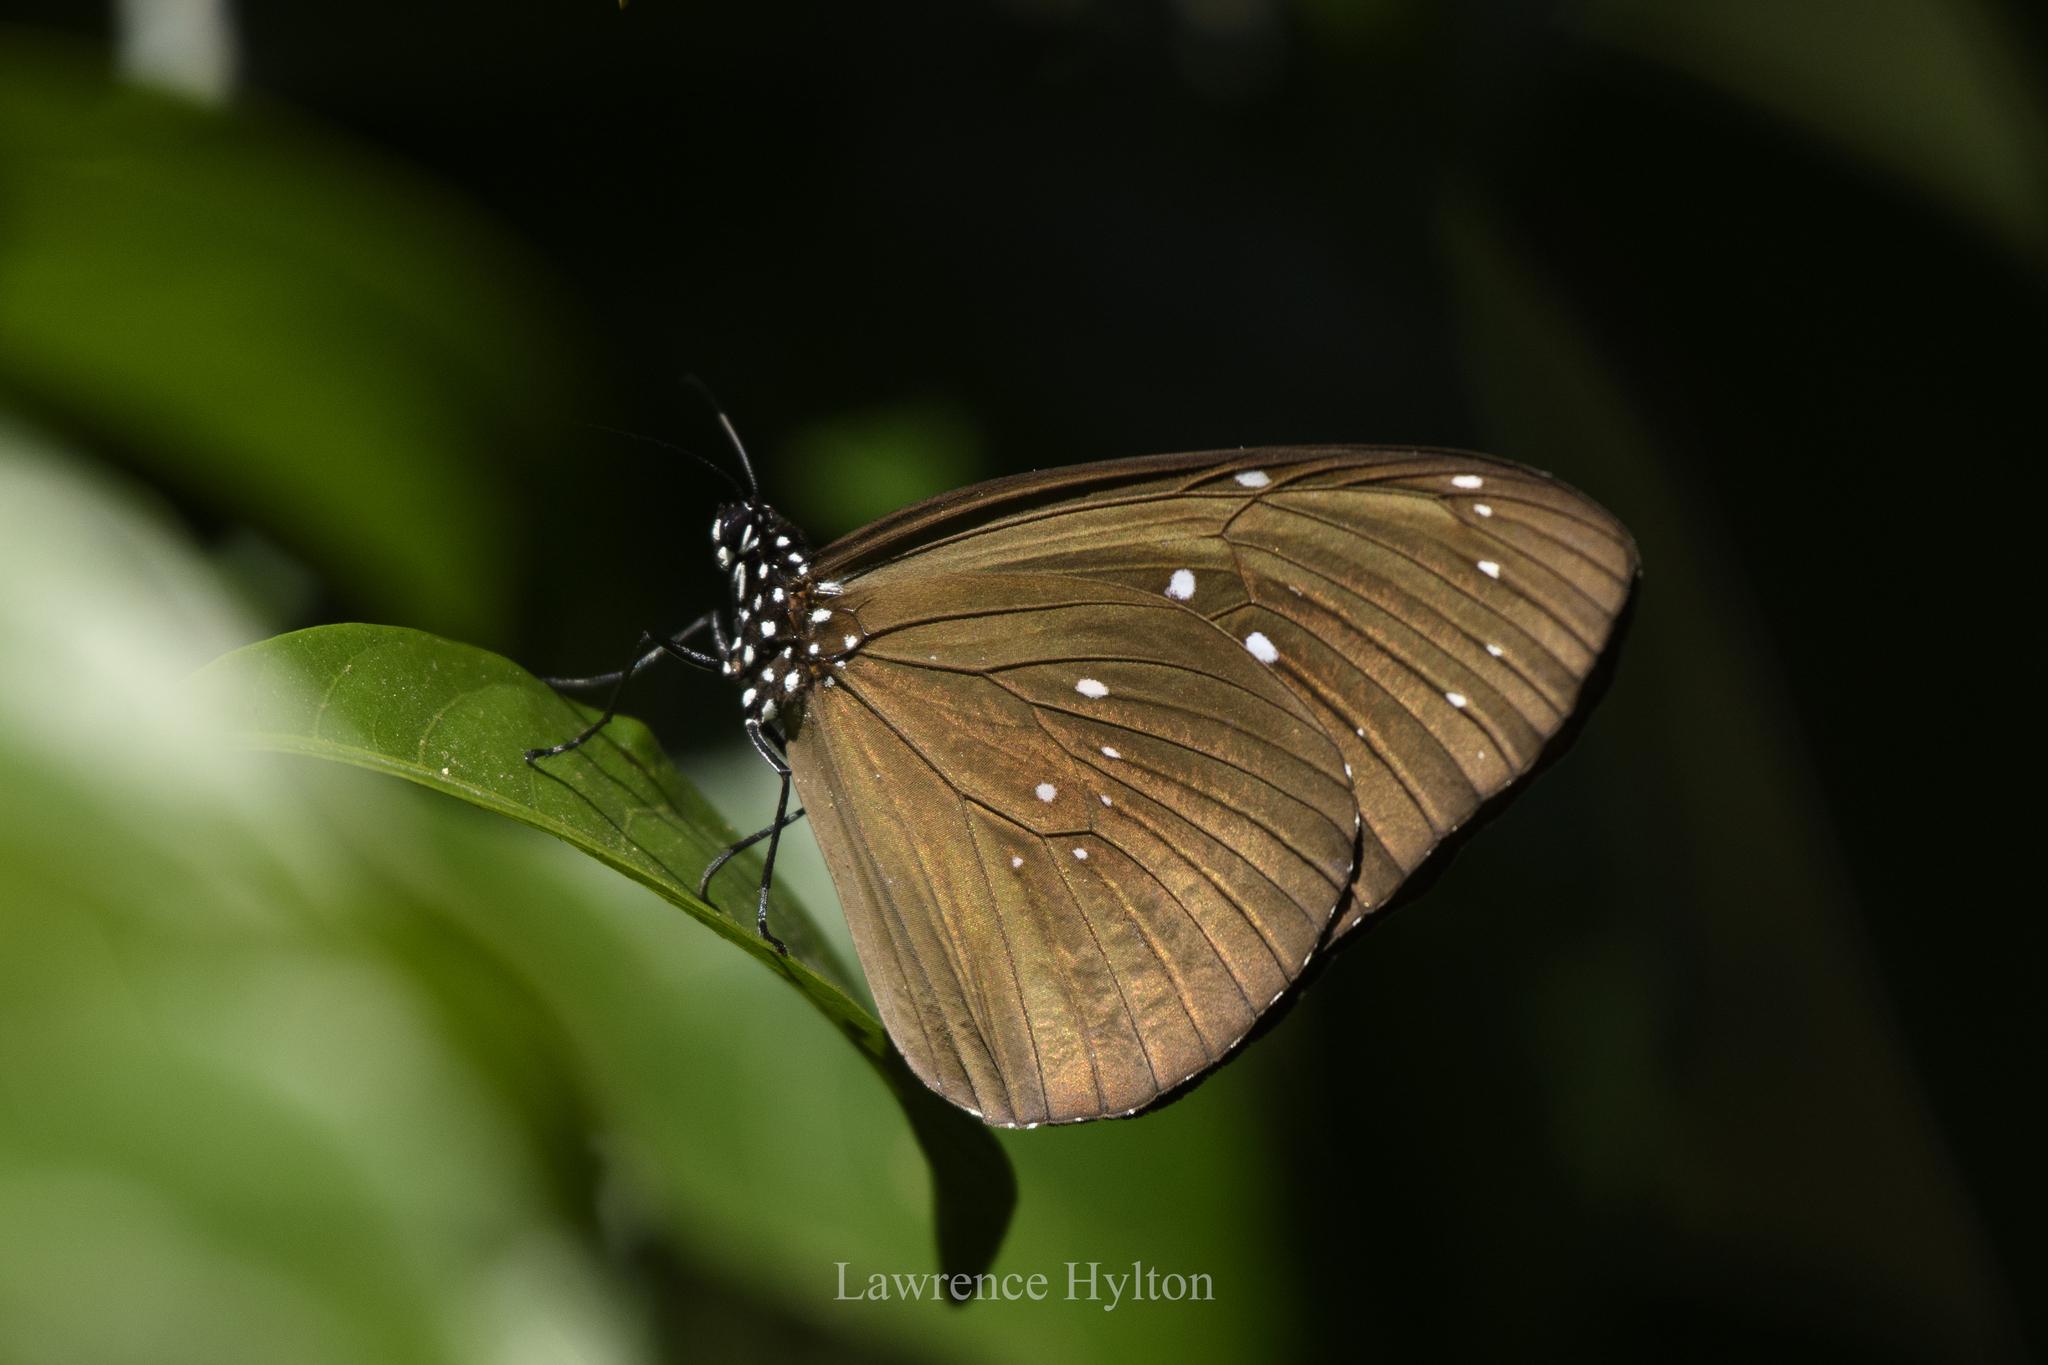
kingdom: Animalia
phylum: Arthropoda
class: Insecta
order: Lepidoptera
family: Nymphalidae
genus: Euploea
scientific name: Euploea core
